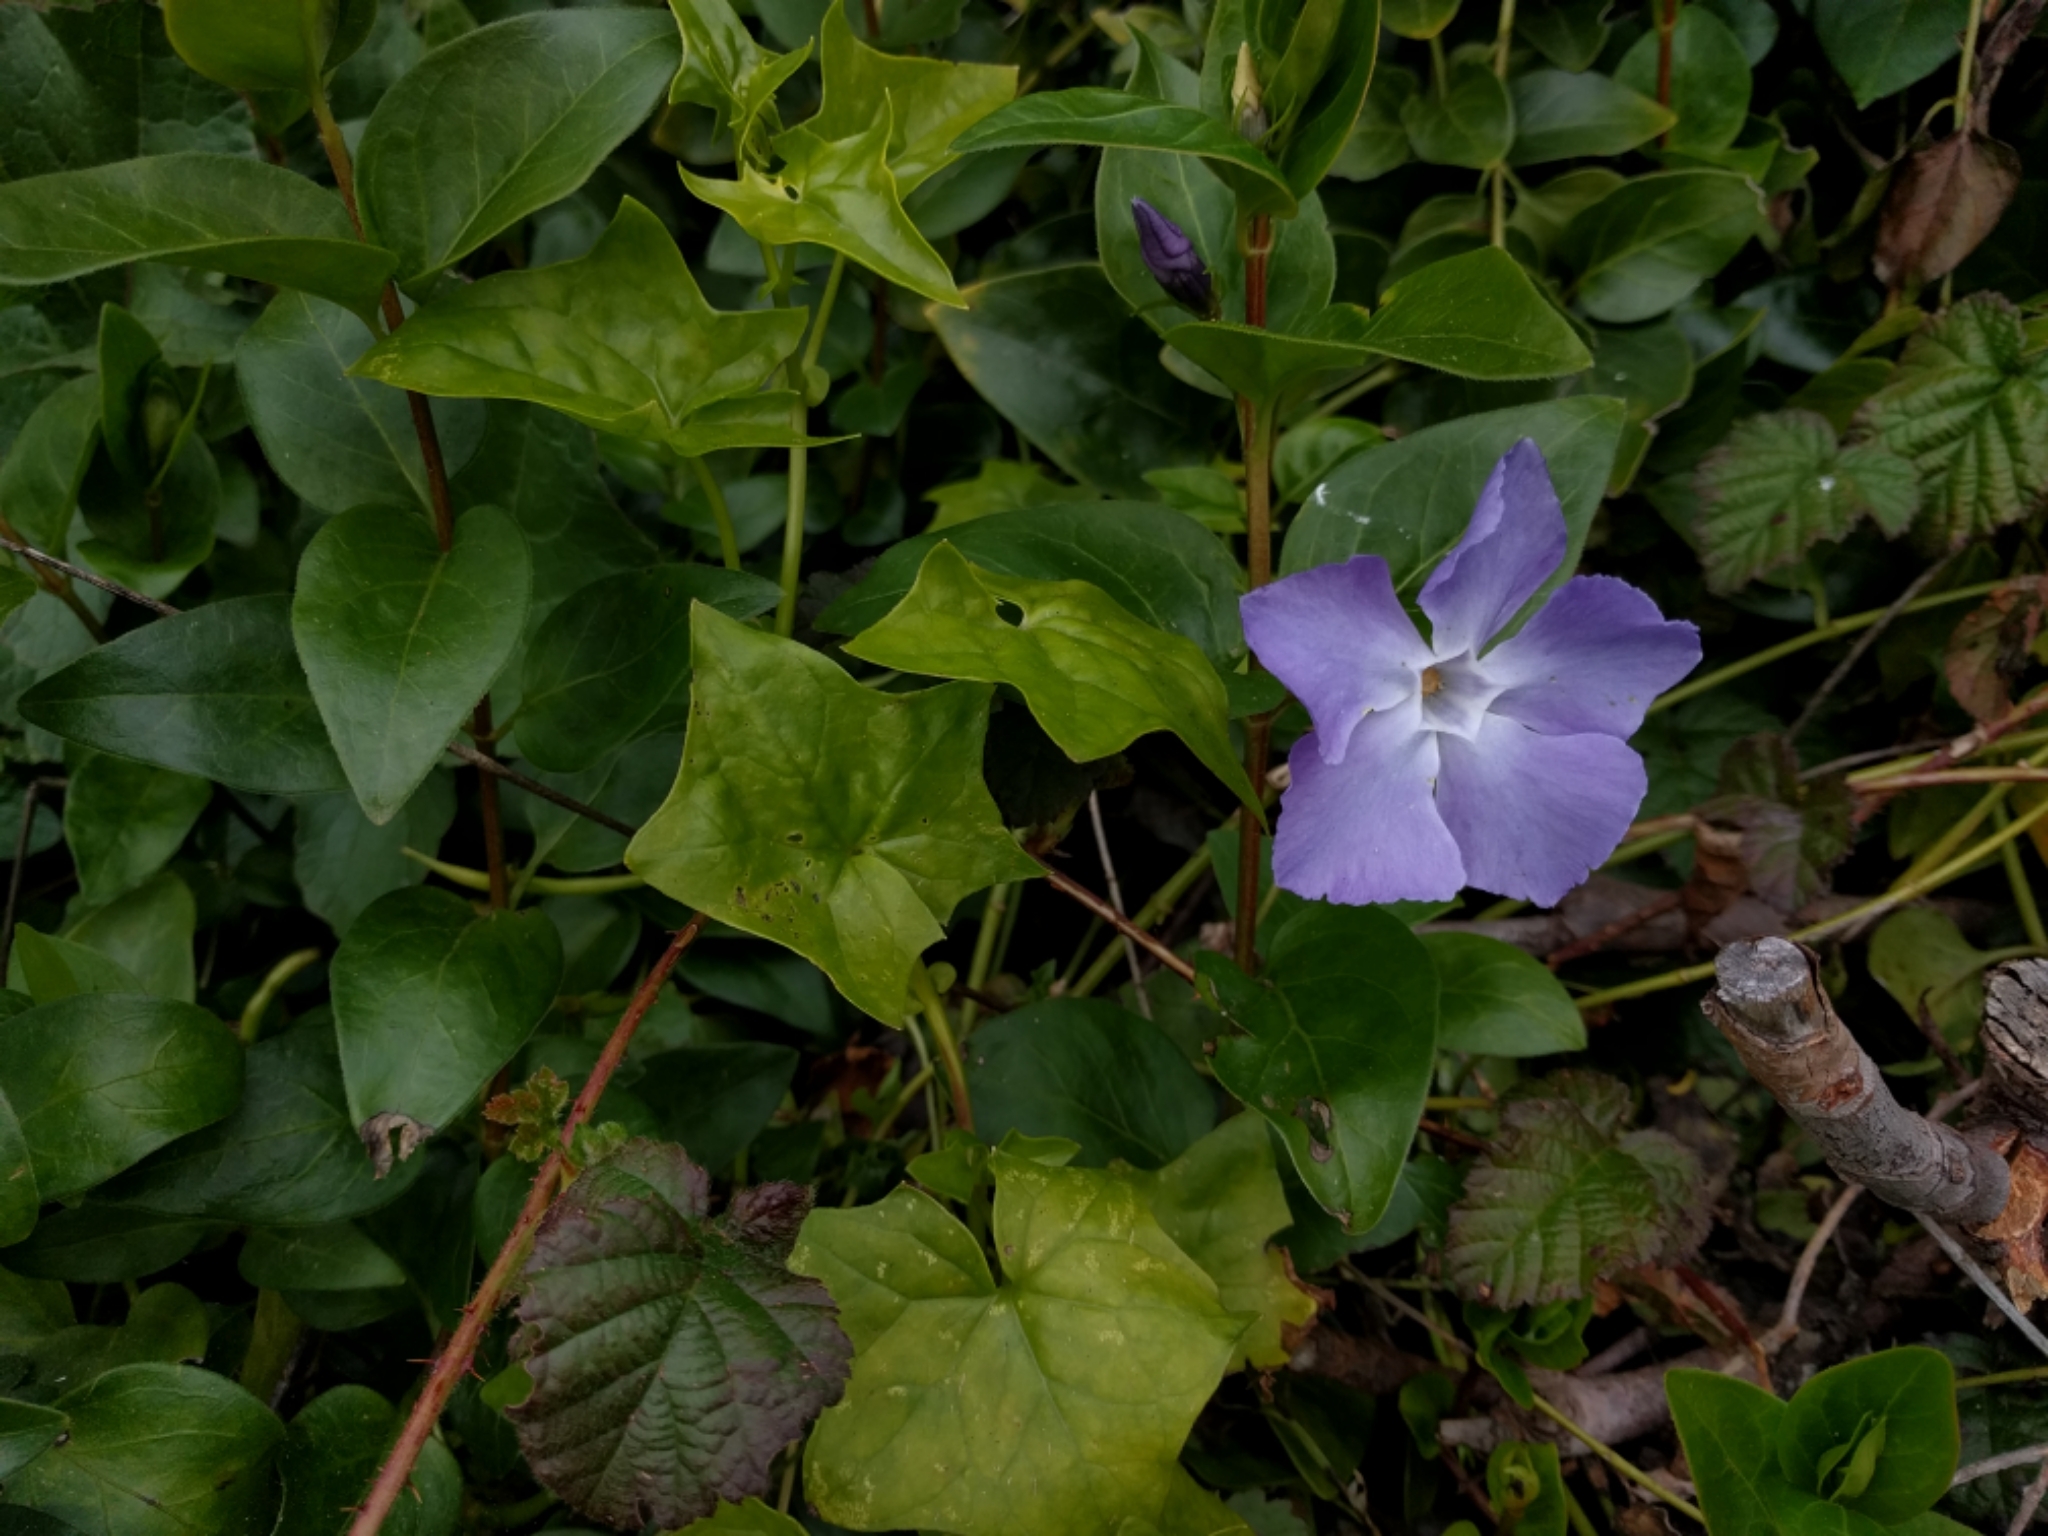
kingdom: Plantae
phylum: Tracheophyta
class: Magnoliopsida
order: Gentianales
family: Apocynaceae
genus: Vinca
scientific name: Vinca major
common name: Greater periwinkle
